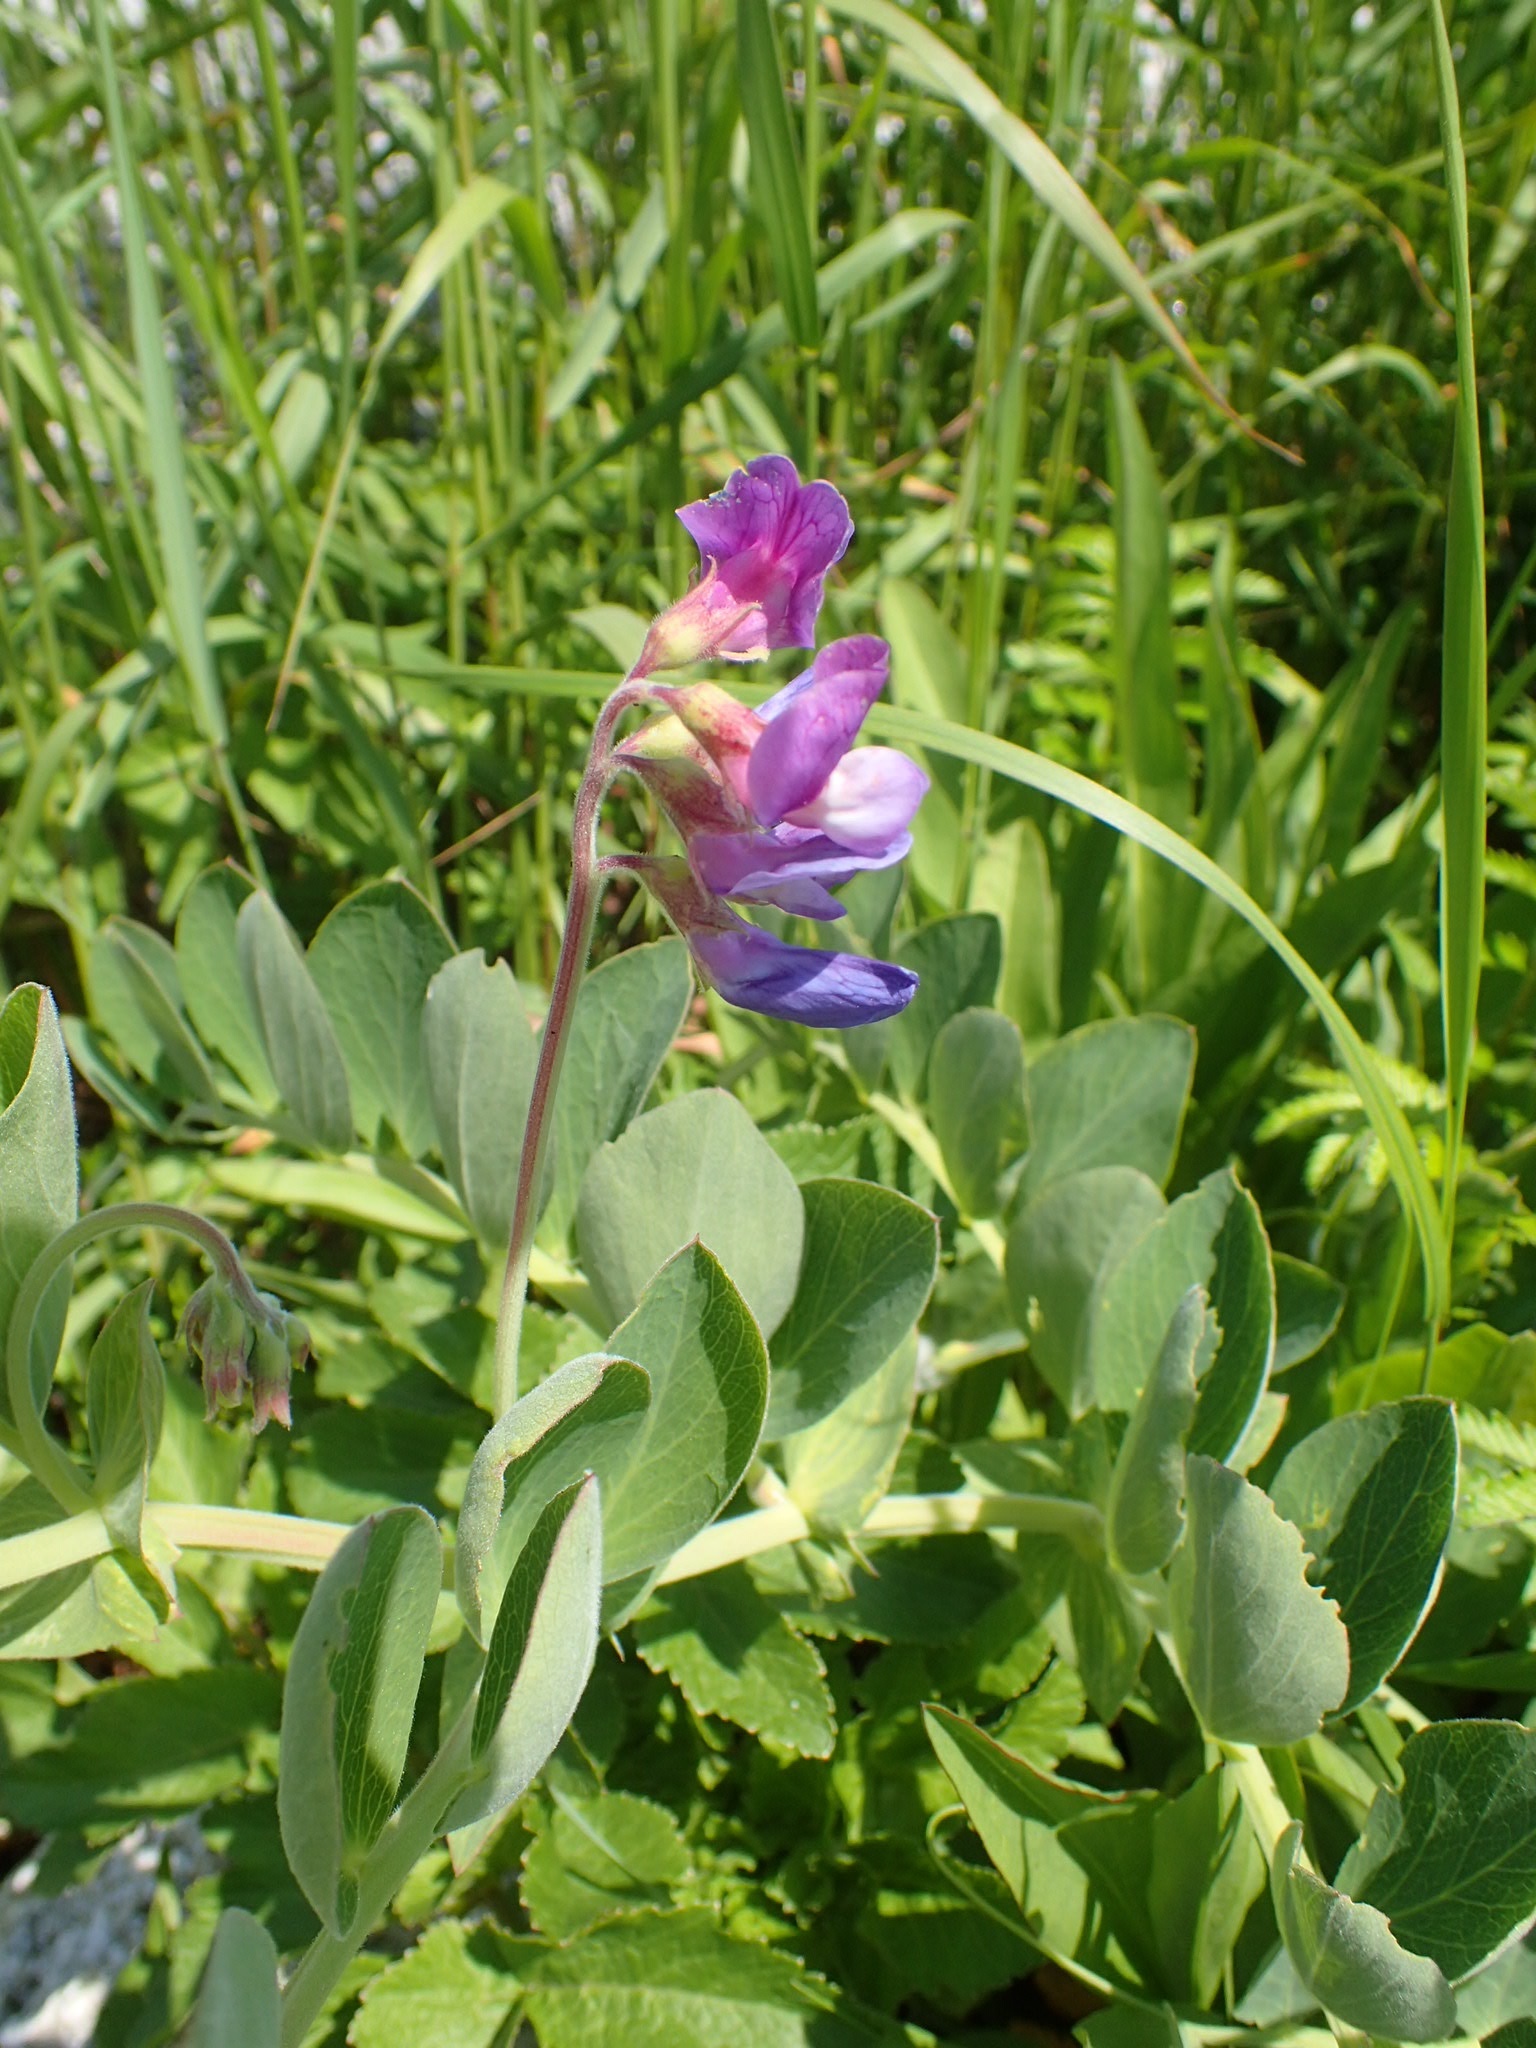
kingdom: Plantae
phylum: Tracheophyta
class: Magnoliopsida
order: Fabales
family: Fabaceae
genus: Lathyrus
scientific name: Lathyrus japonicus
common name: Sea pea
